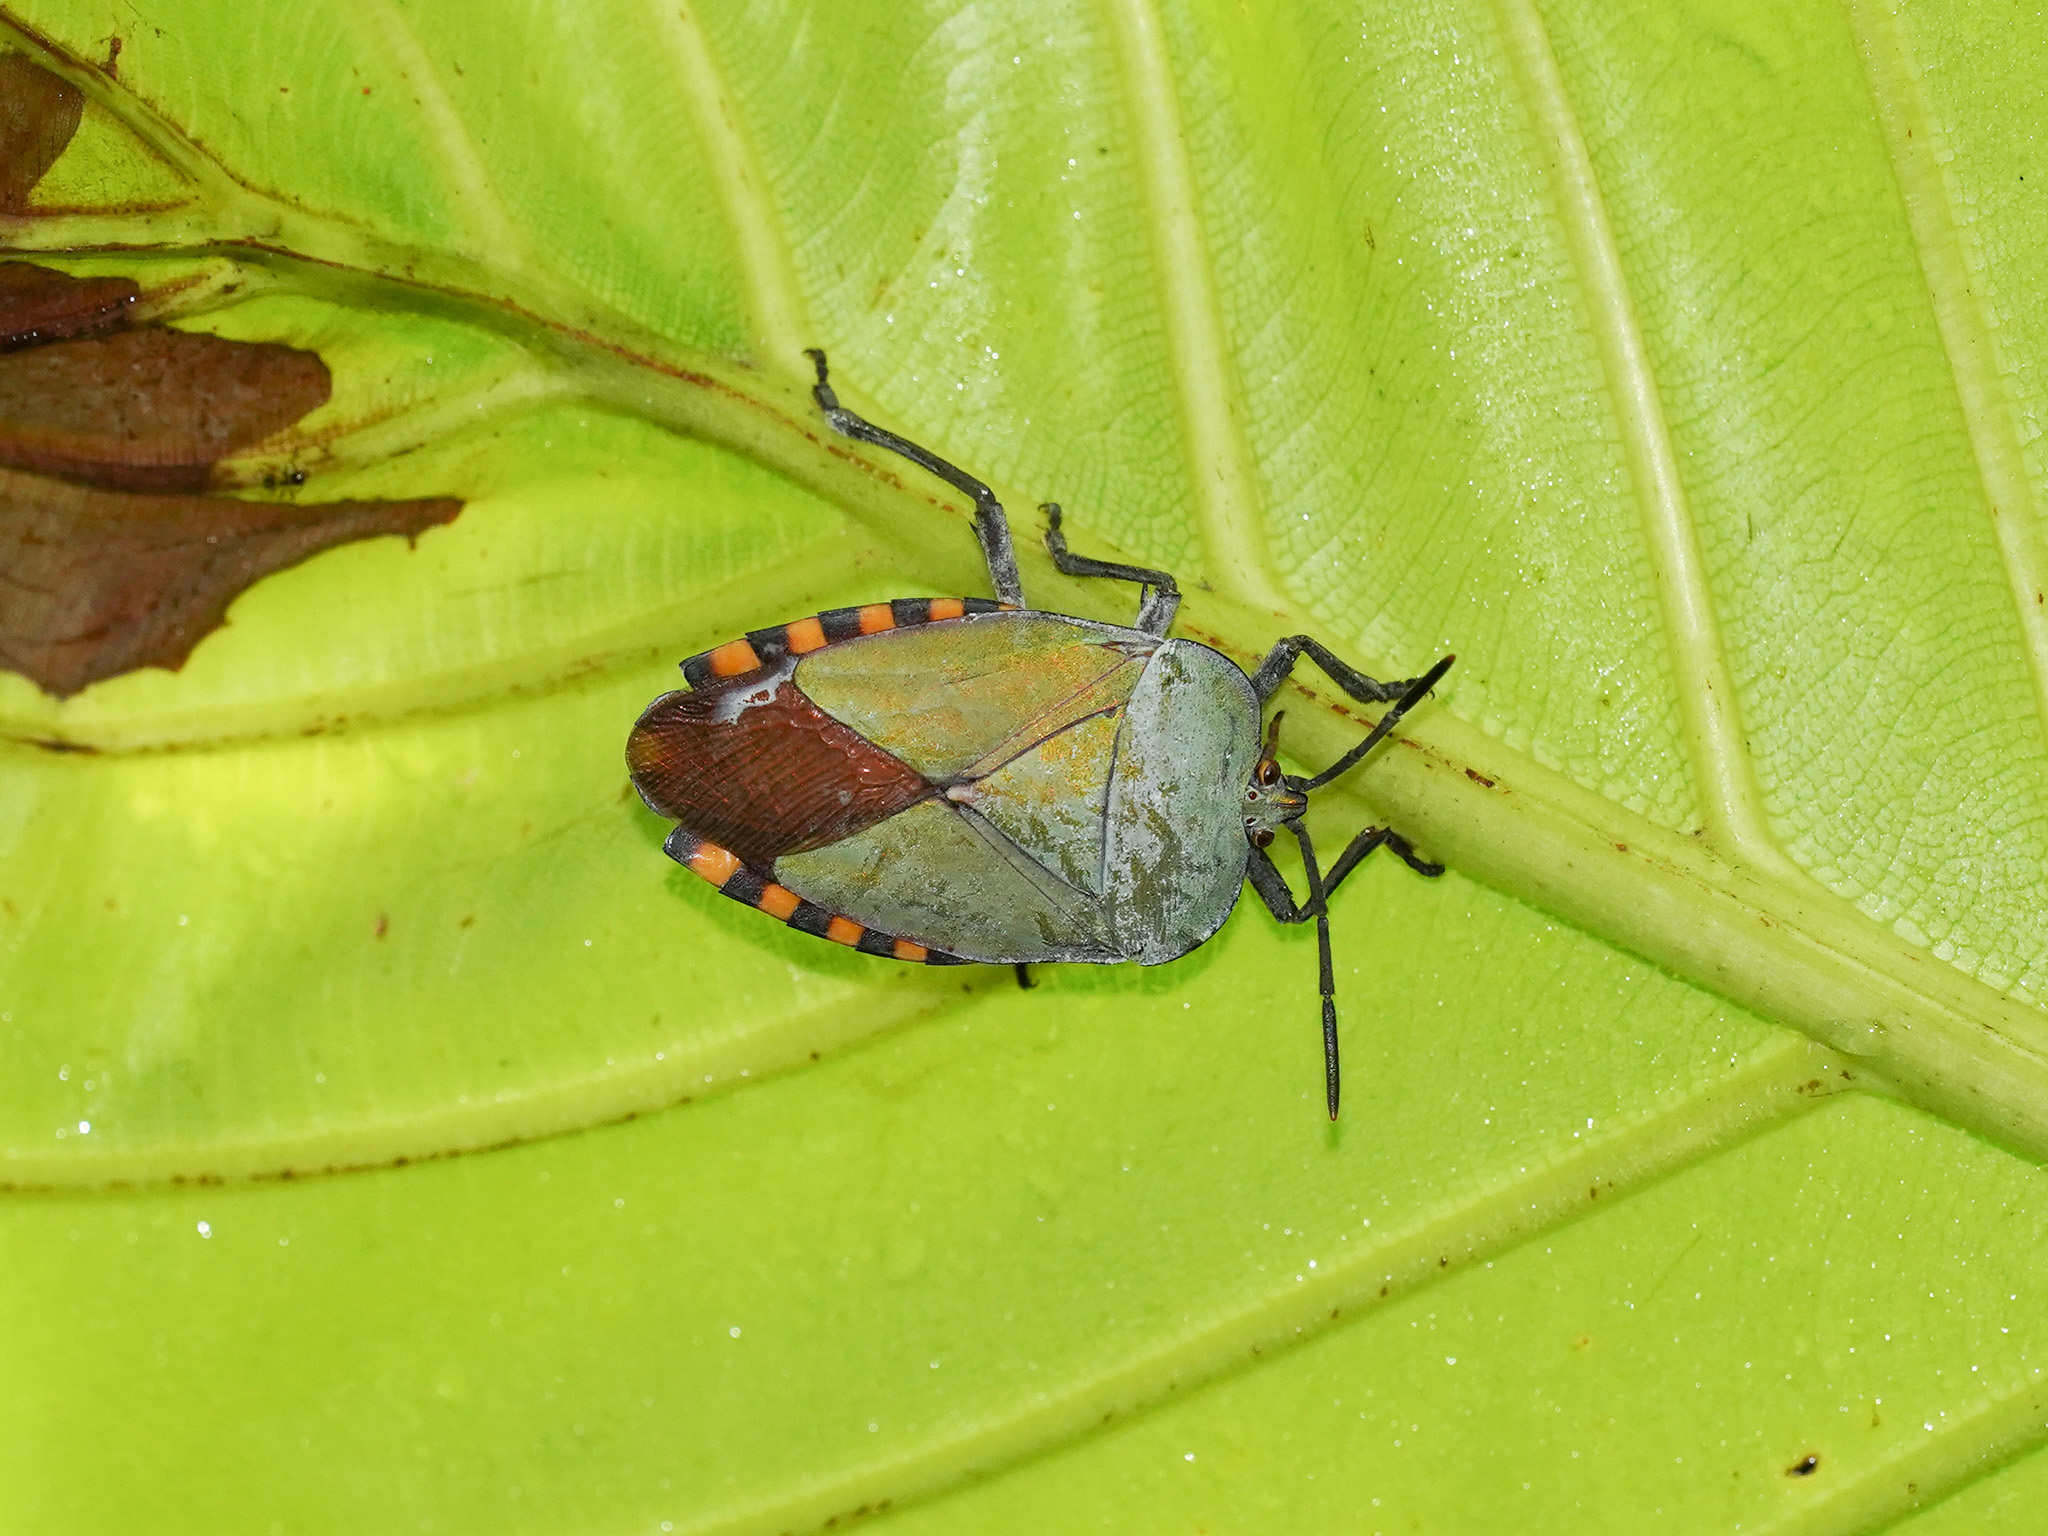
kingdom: Animalia
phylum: Arthropoda
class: Insecta
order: Hemiptera
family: Tessaratomidae
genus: Pycanum
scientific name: Pycanum alternatum
